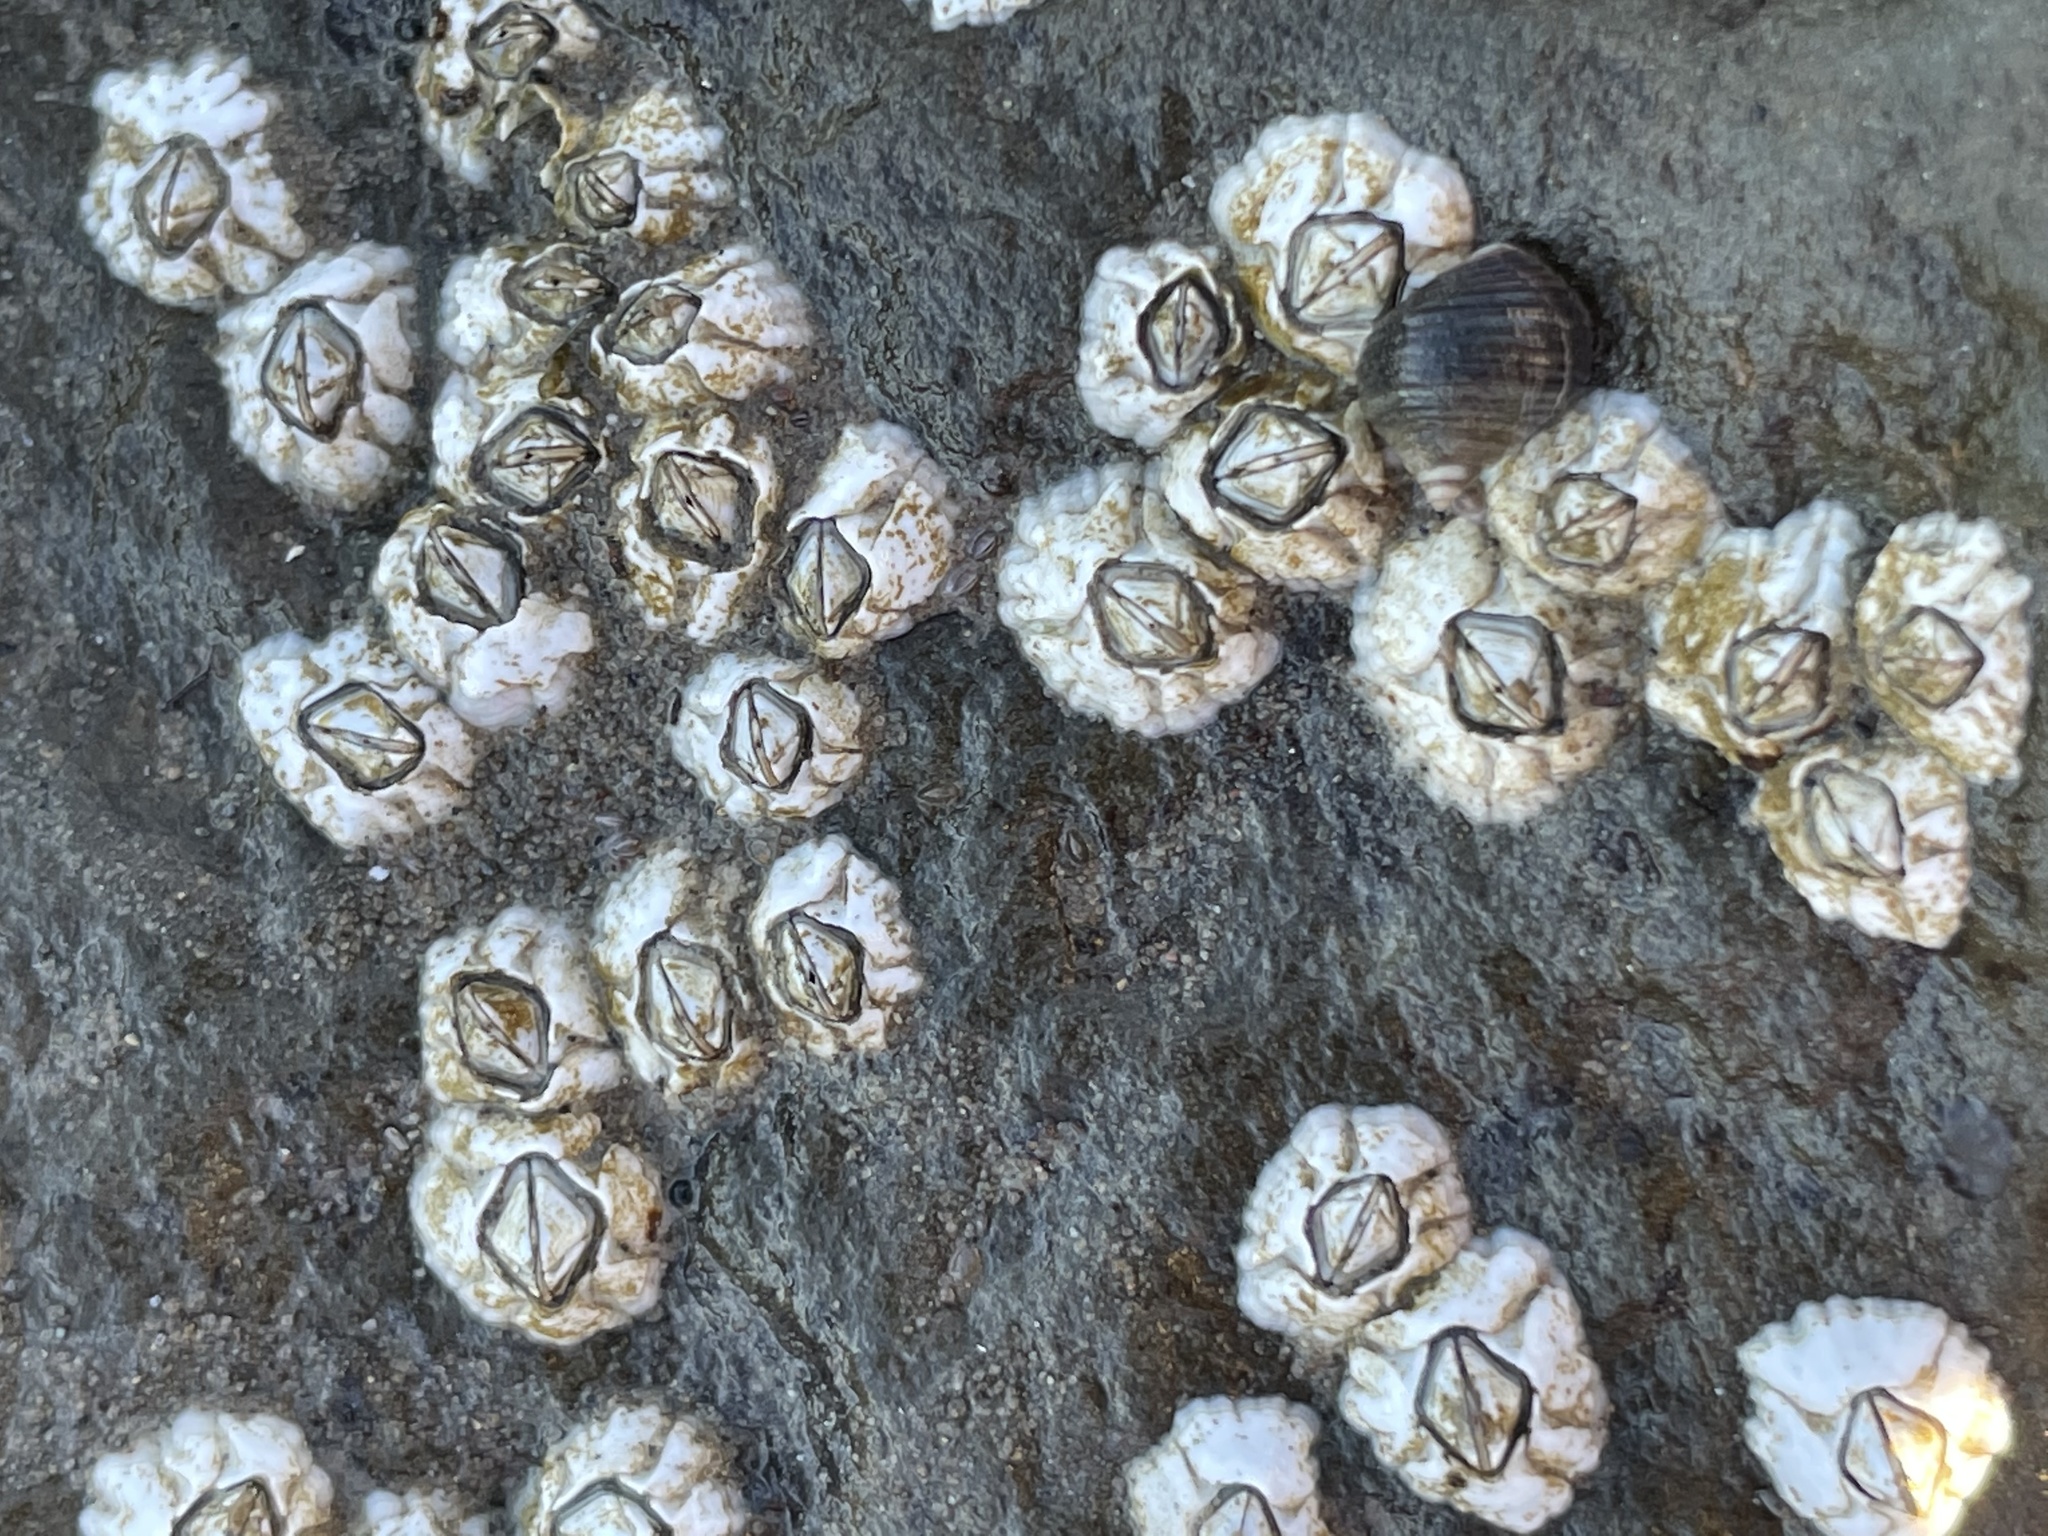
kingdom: Animalia
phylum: Arthropoda
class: Maxillopoda
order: Sessilia
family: Archaeobalanidae
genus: Semibalanus
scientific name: Semibalanus balanoides
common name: Acorn barnacle
